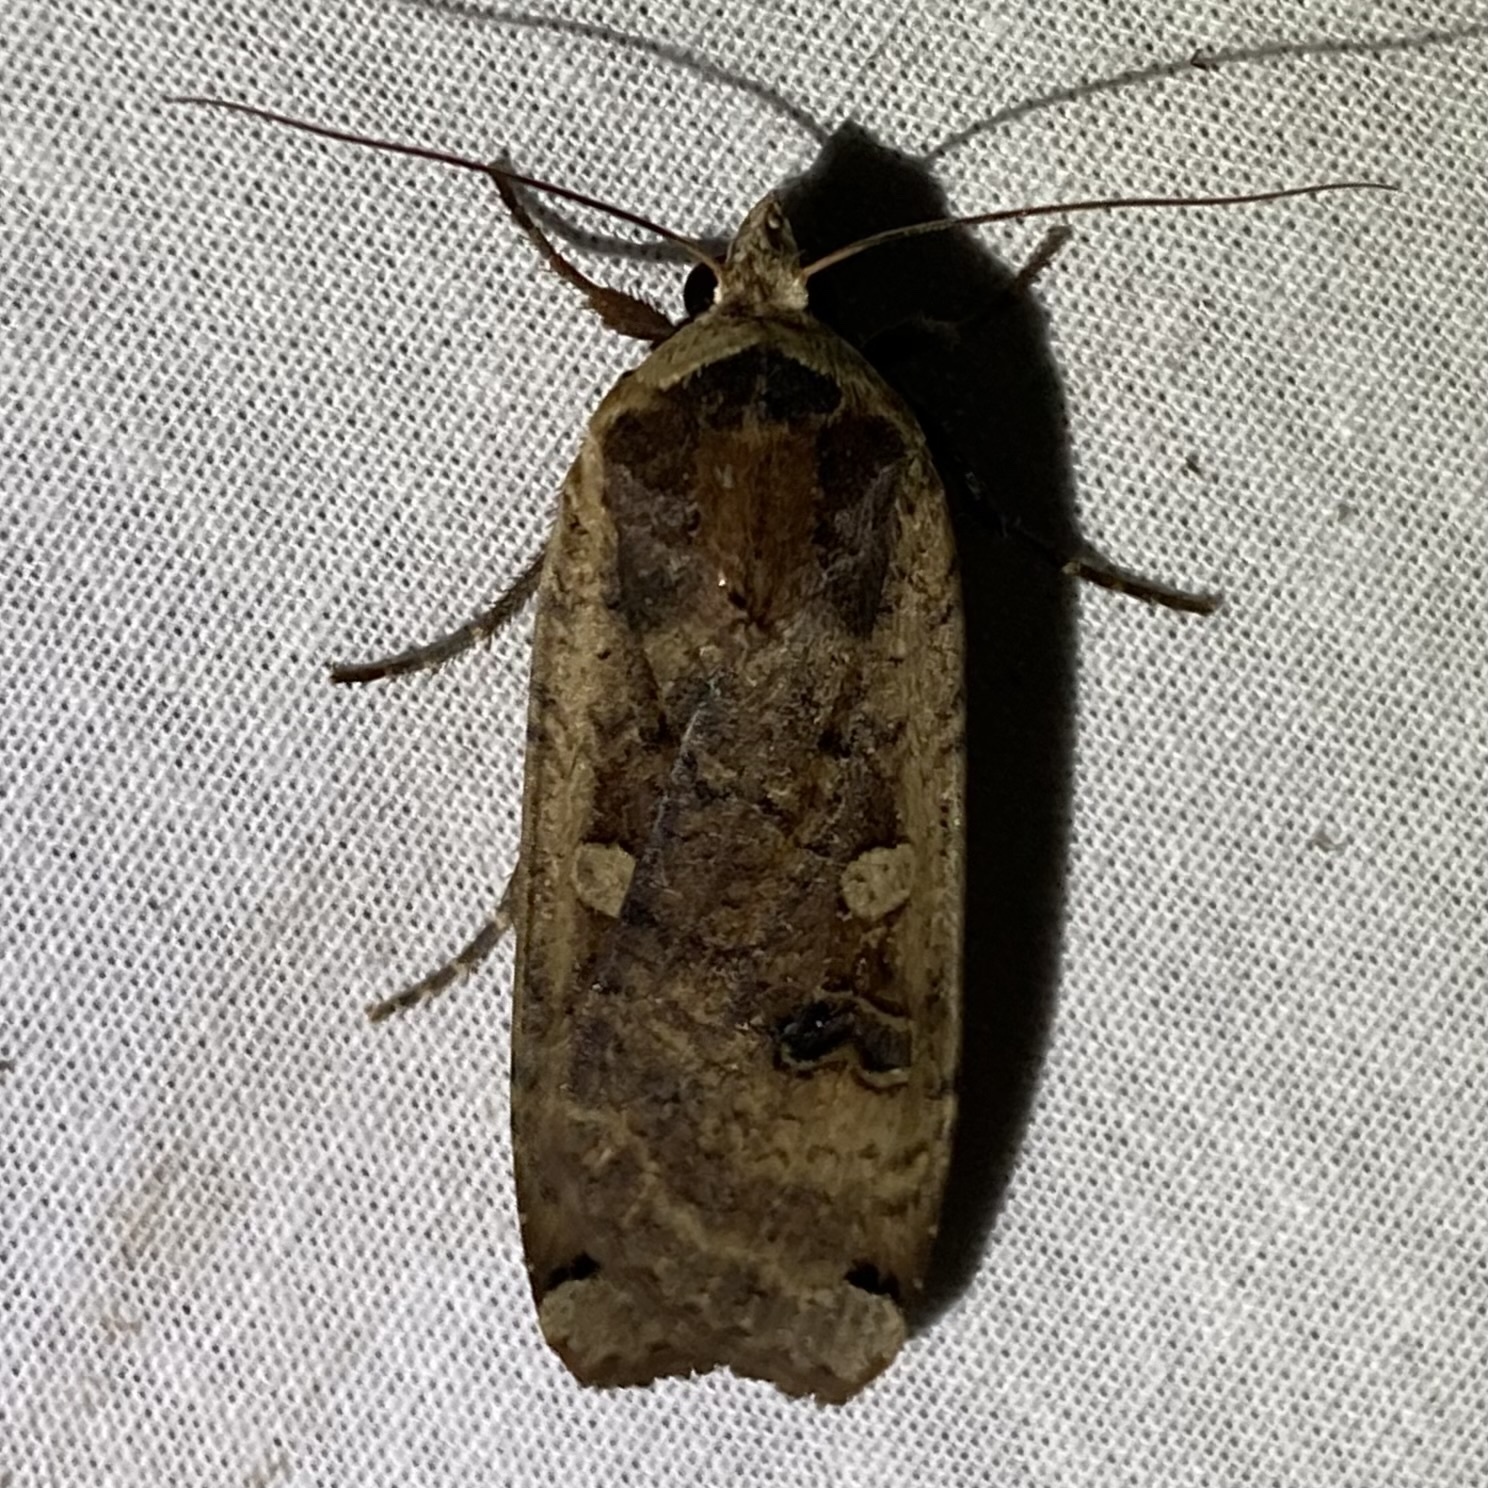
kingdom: Animalia
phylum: Arthropoda
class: Insecta
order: Lepidoptera
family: Noctuidae
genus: Noctua
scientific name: Noctua pronuba
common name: Large yellow underwing
